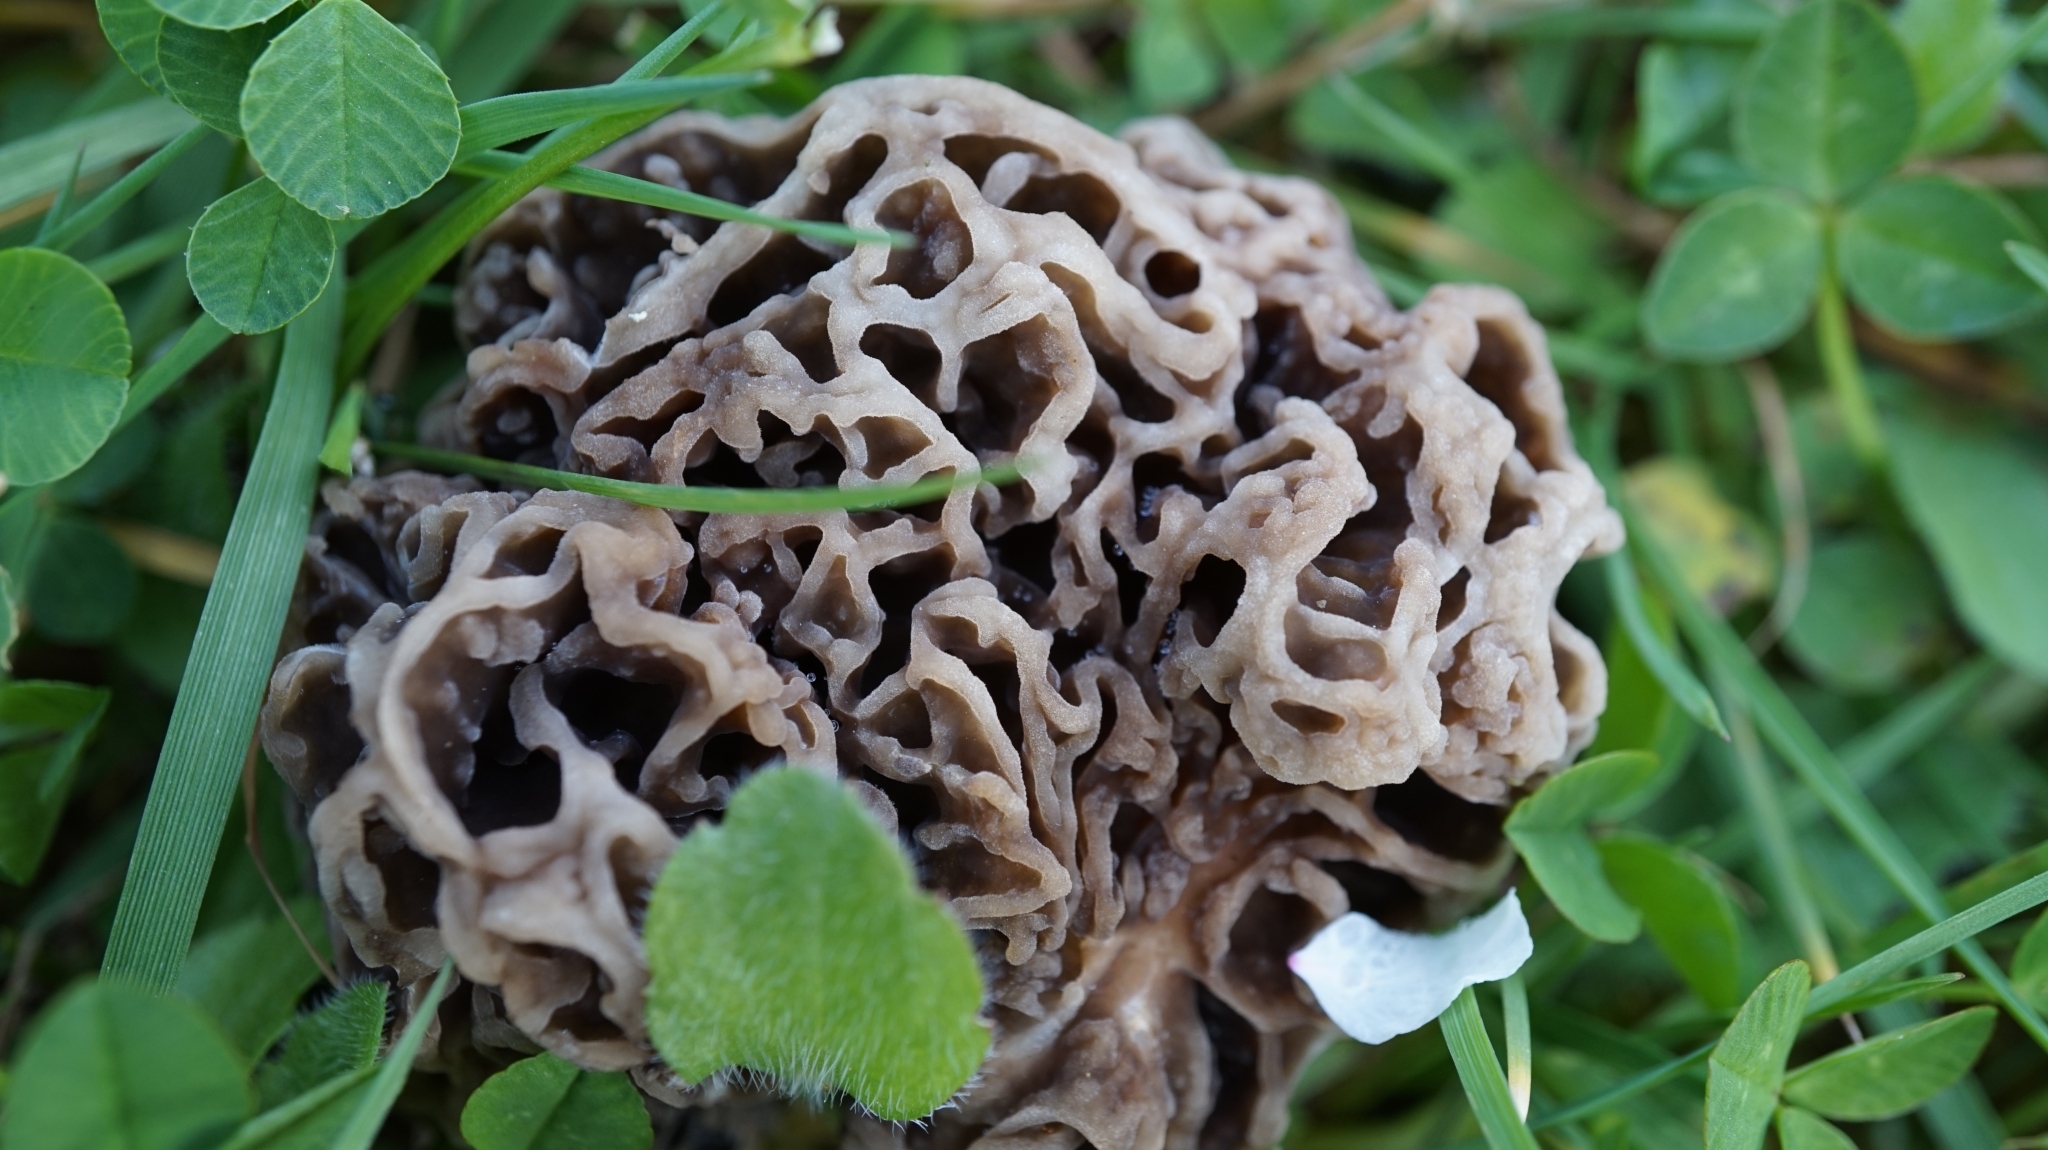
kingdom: Fungi
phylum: Ascomycota
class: Pezizomycetes
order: Pezizales
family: Morchellaceae
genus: Morchella
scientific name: Morchella vulgaris
